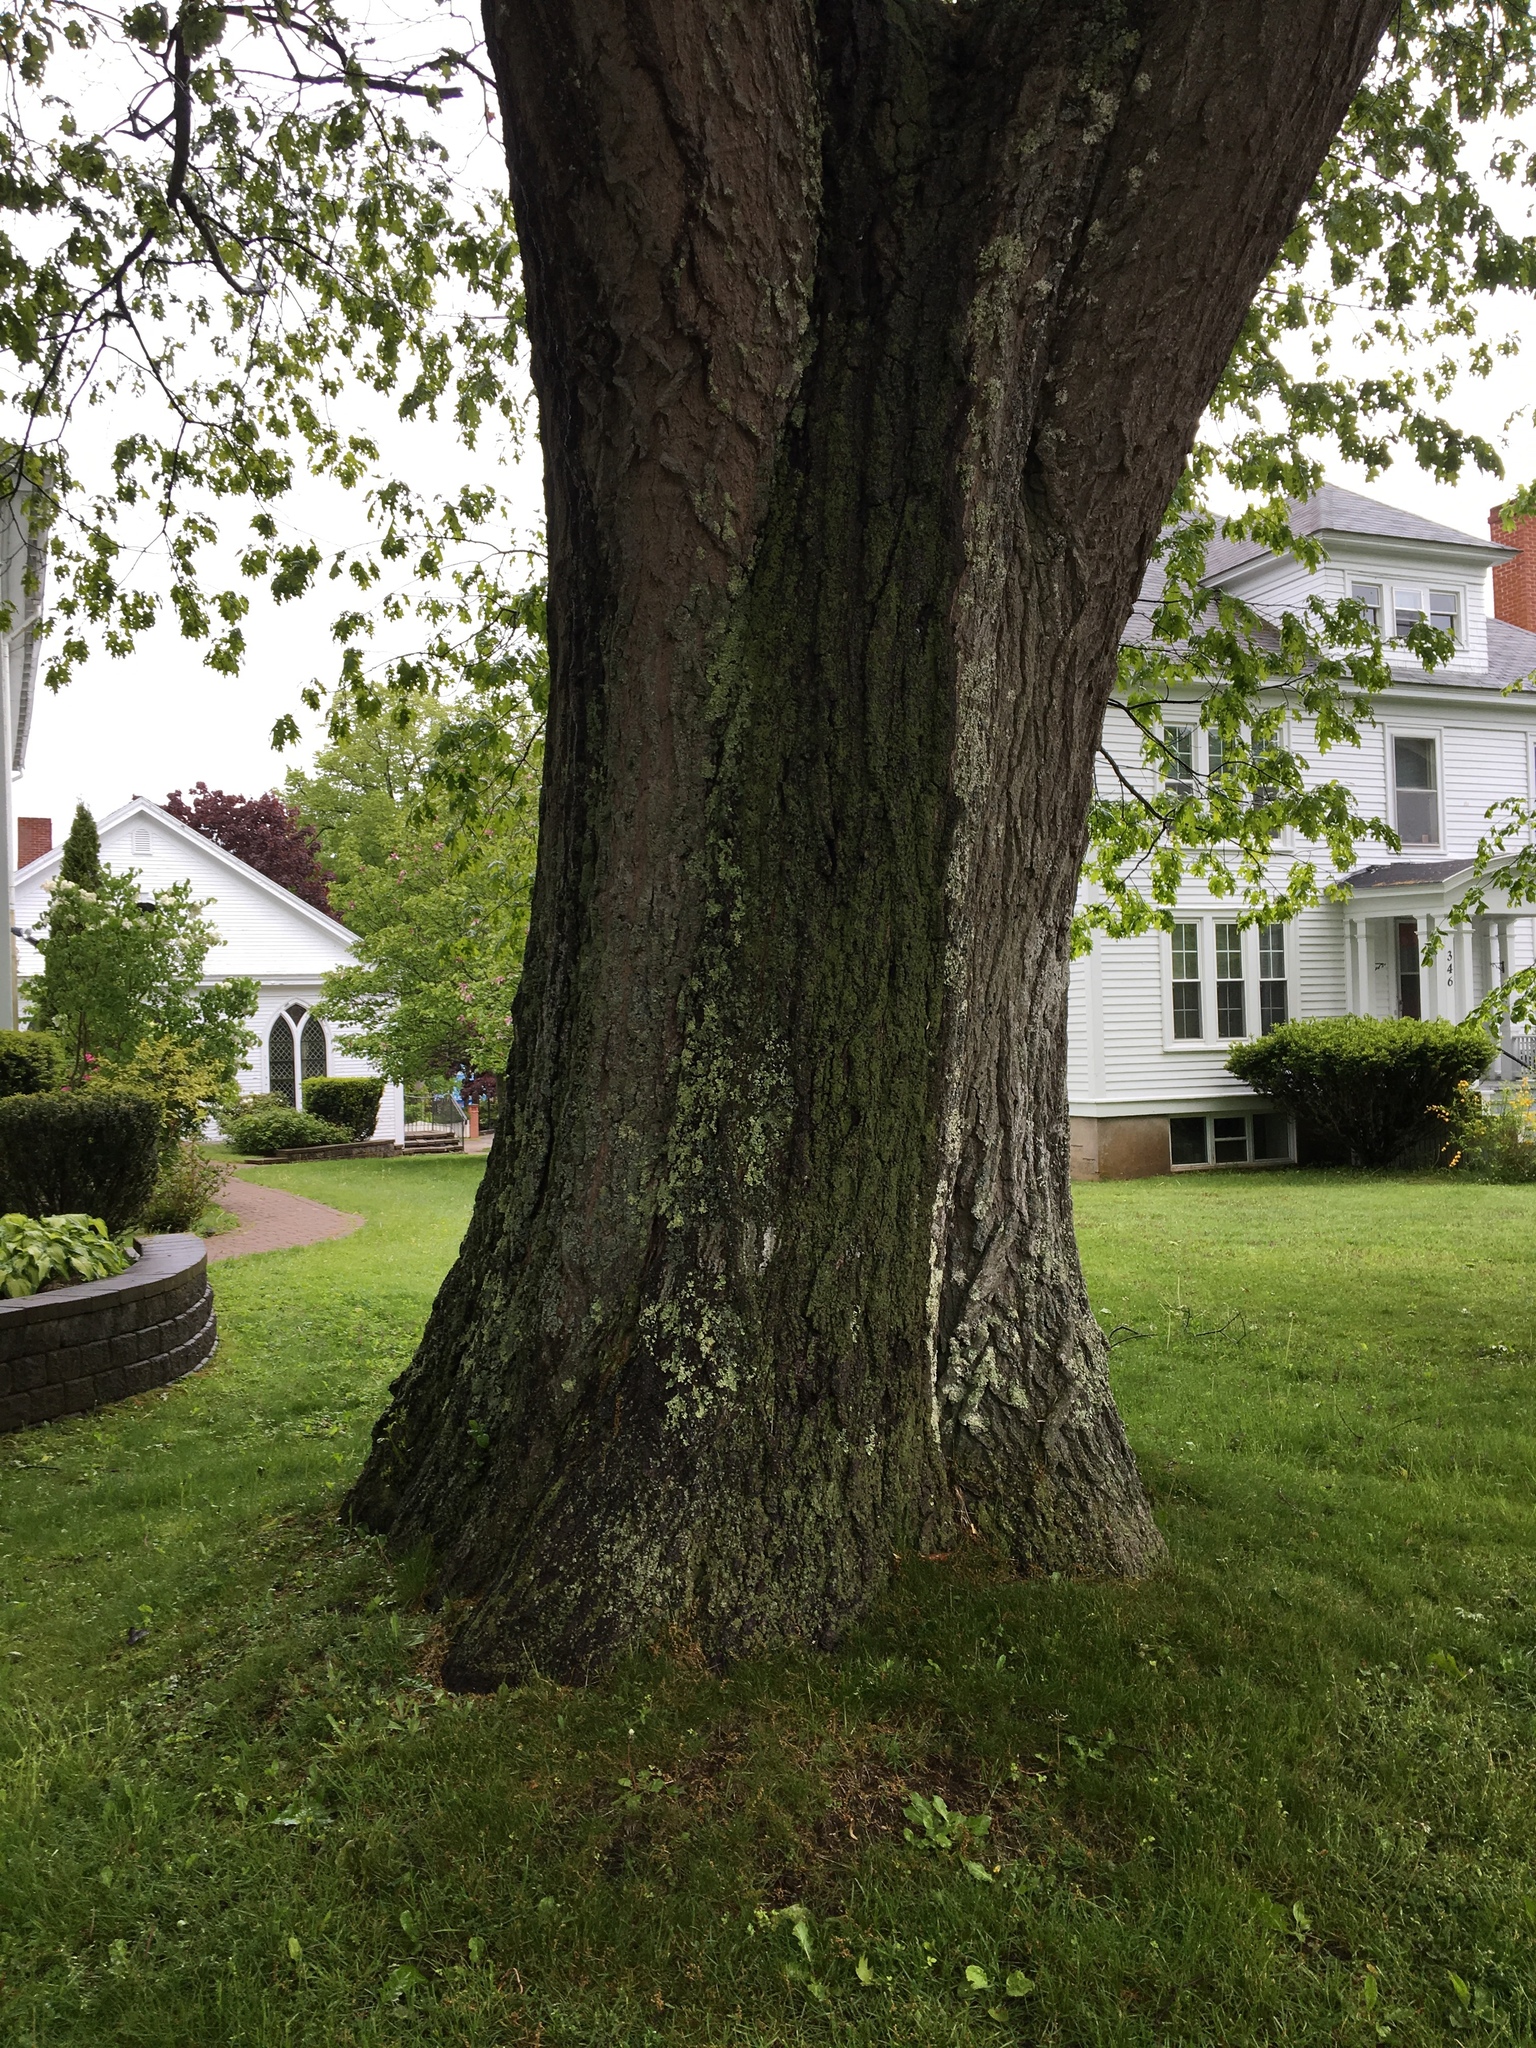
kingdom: Plantae
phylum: Tracheophyta
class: Magnoliopsida
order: Fagales
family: Fagaceae
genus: Quercus
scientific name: Quercus rubra
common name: Red oak
